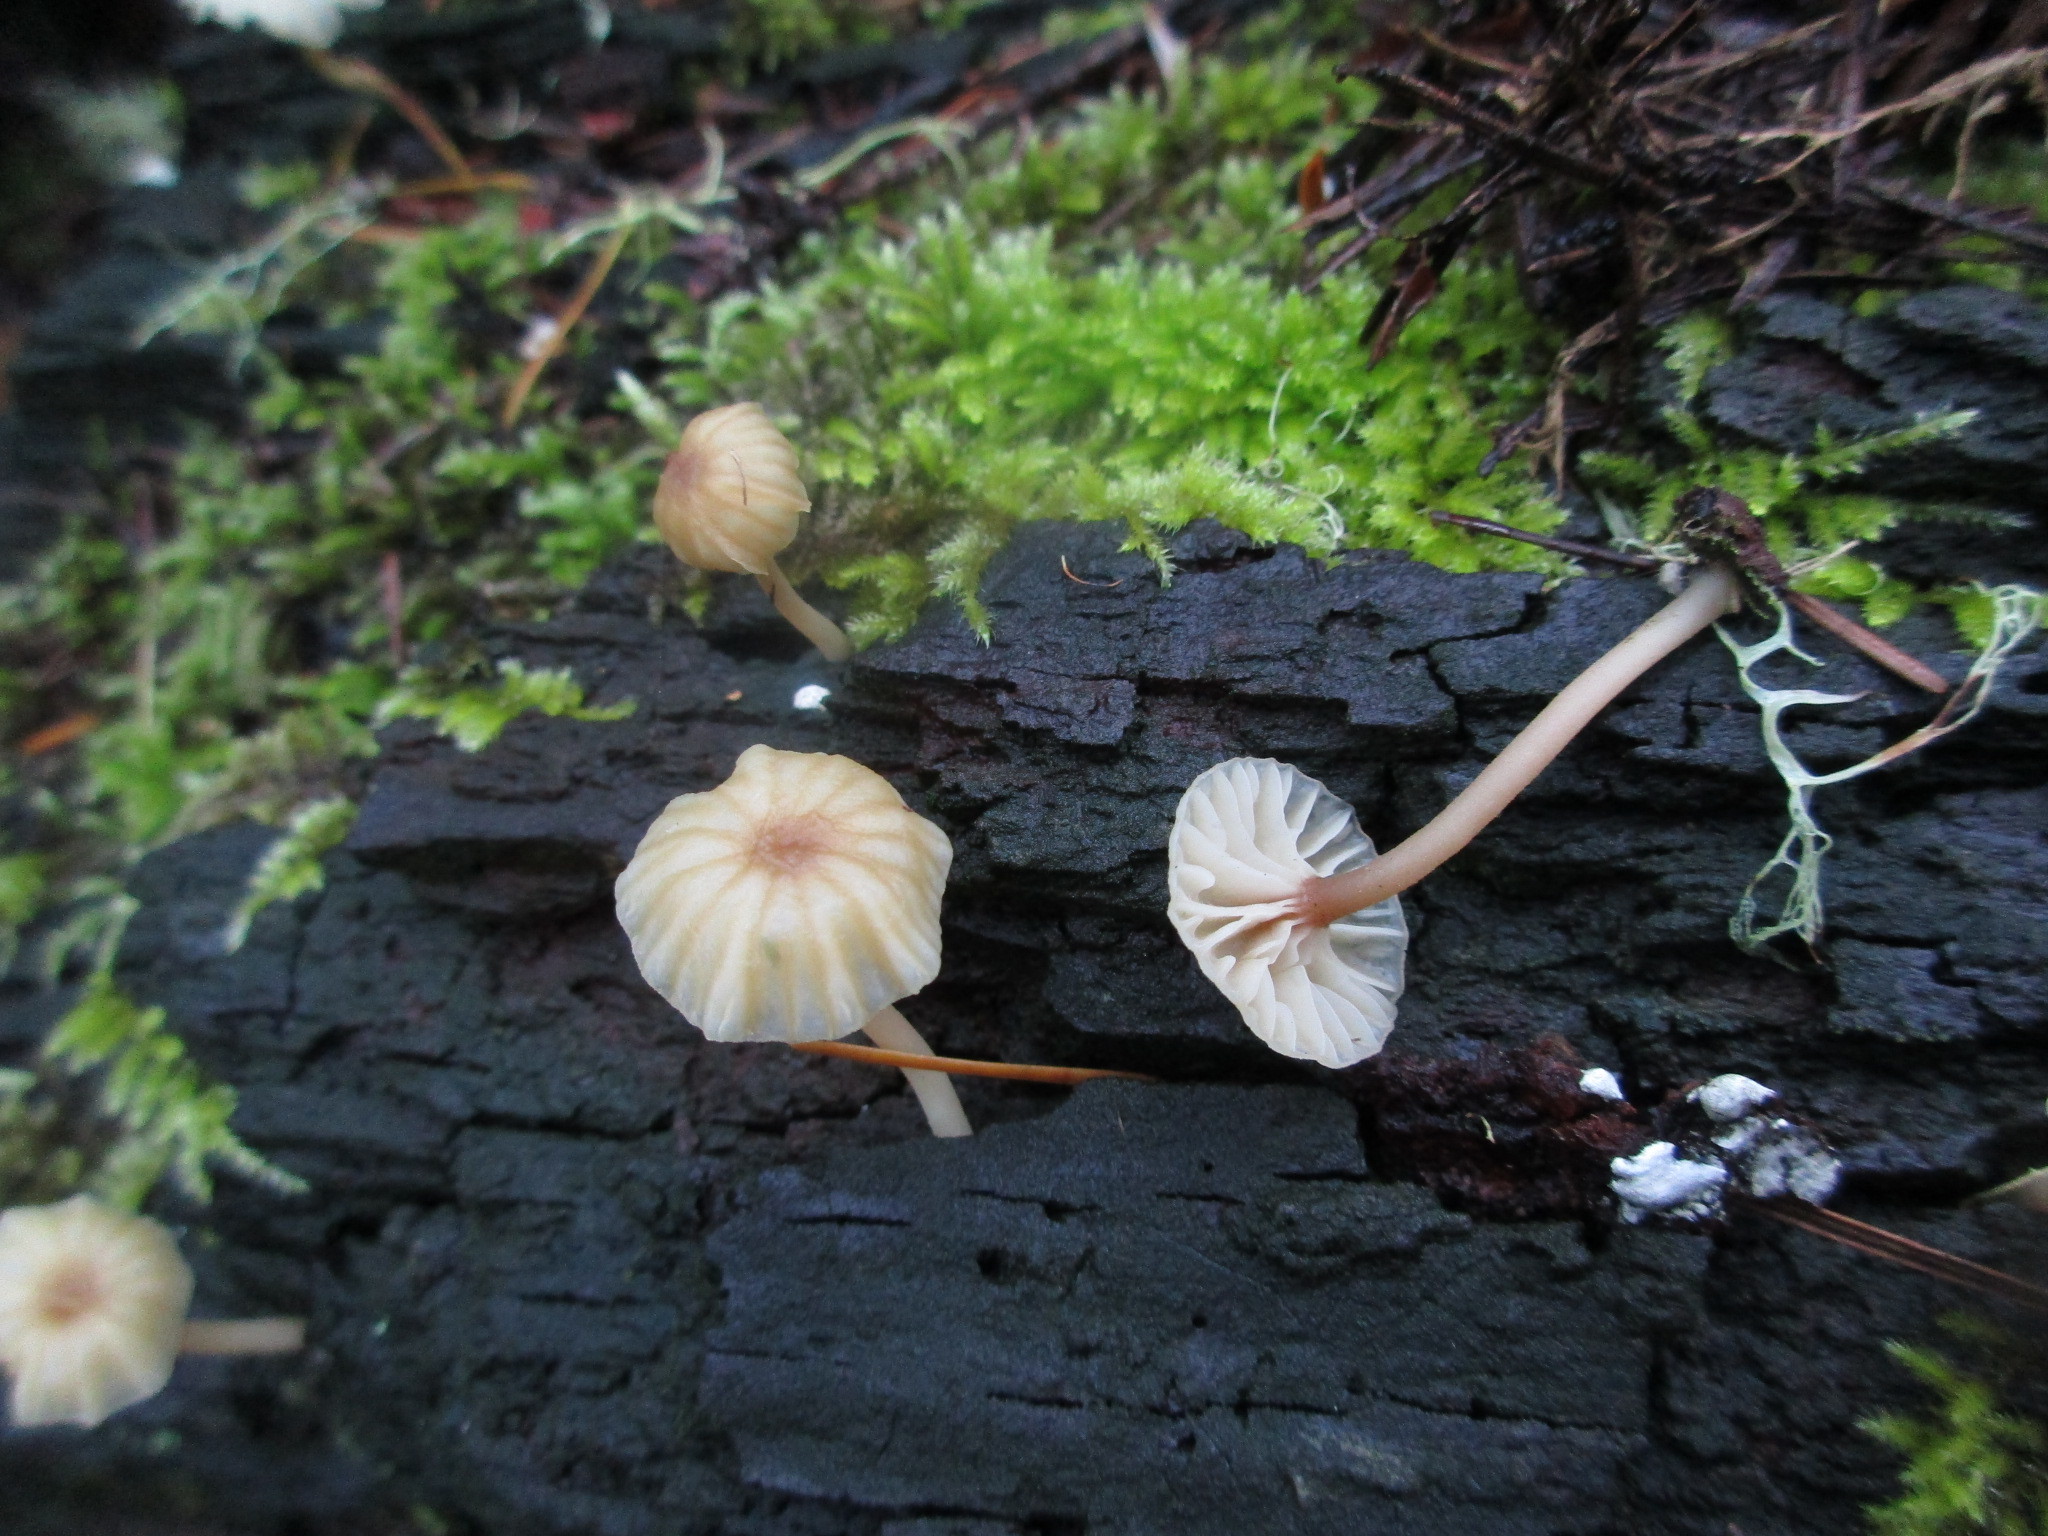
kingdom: Fungi
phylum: Basidiomycota
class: Agaricomycetes
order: Agaricales
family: Hygrophoraceae
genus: Lichenomphalia
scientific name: Lichenomphalia
